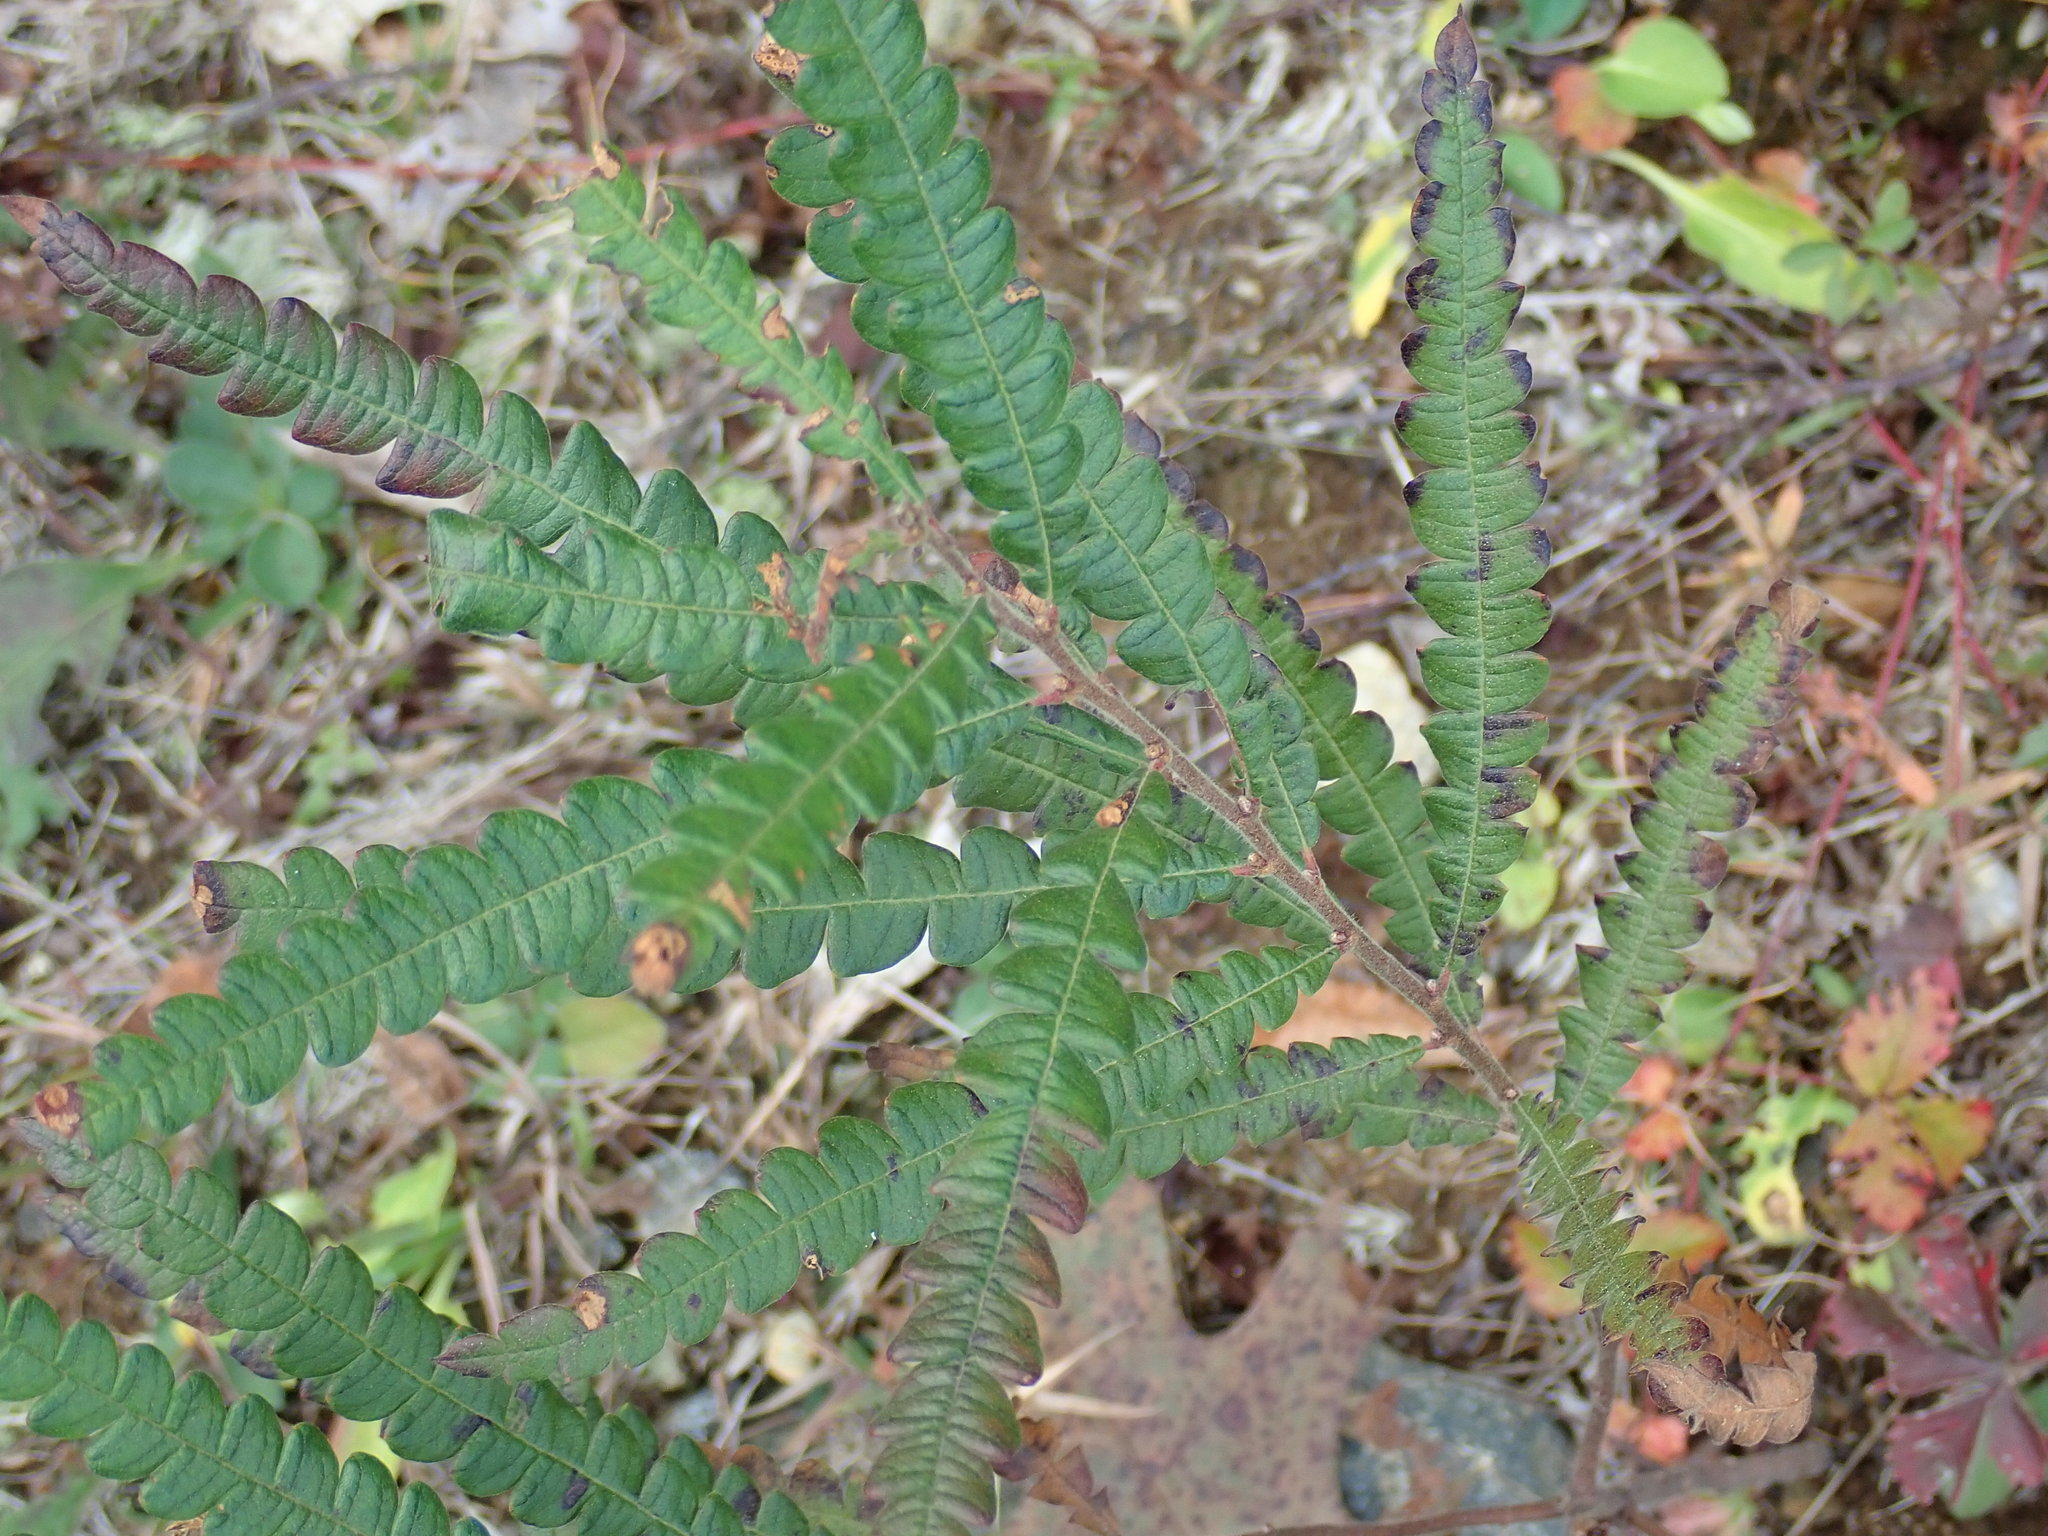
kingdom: Plantae
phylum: Tracheophyta
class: Magnoliopsida
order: Fagales
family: Myricaceae
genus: Comptonia
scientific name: Comptonia peregrina
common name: Sweet-fern
